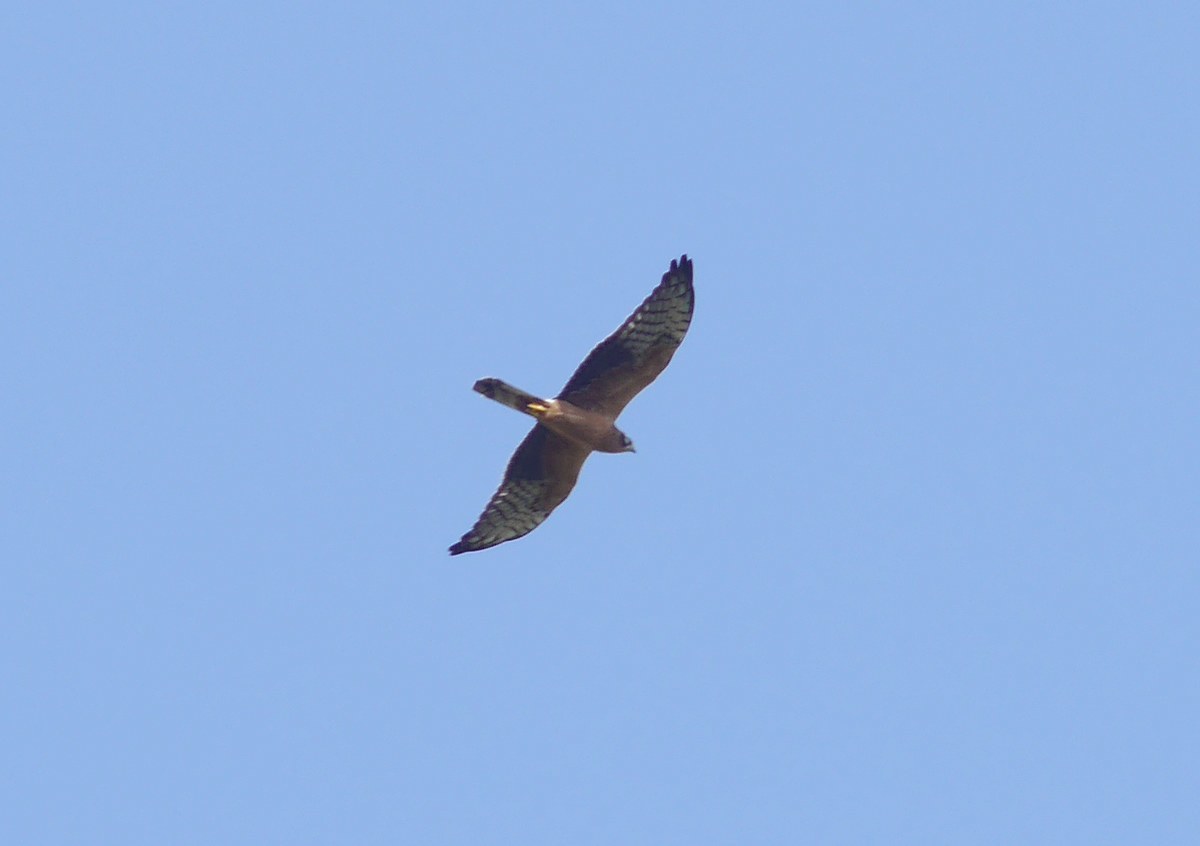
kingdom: Animalia
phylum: Chordata
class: Aves
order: Accipitriformes
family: Accipitridae
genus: Circus
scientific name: Circus macrourus
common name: Pallid harrier
